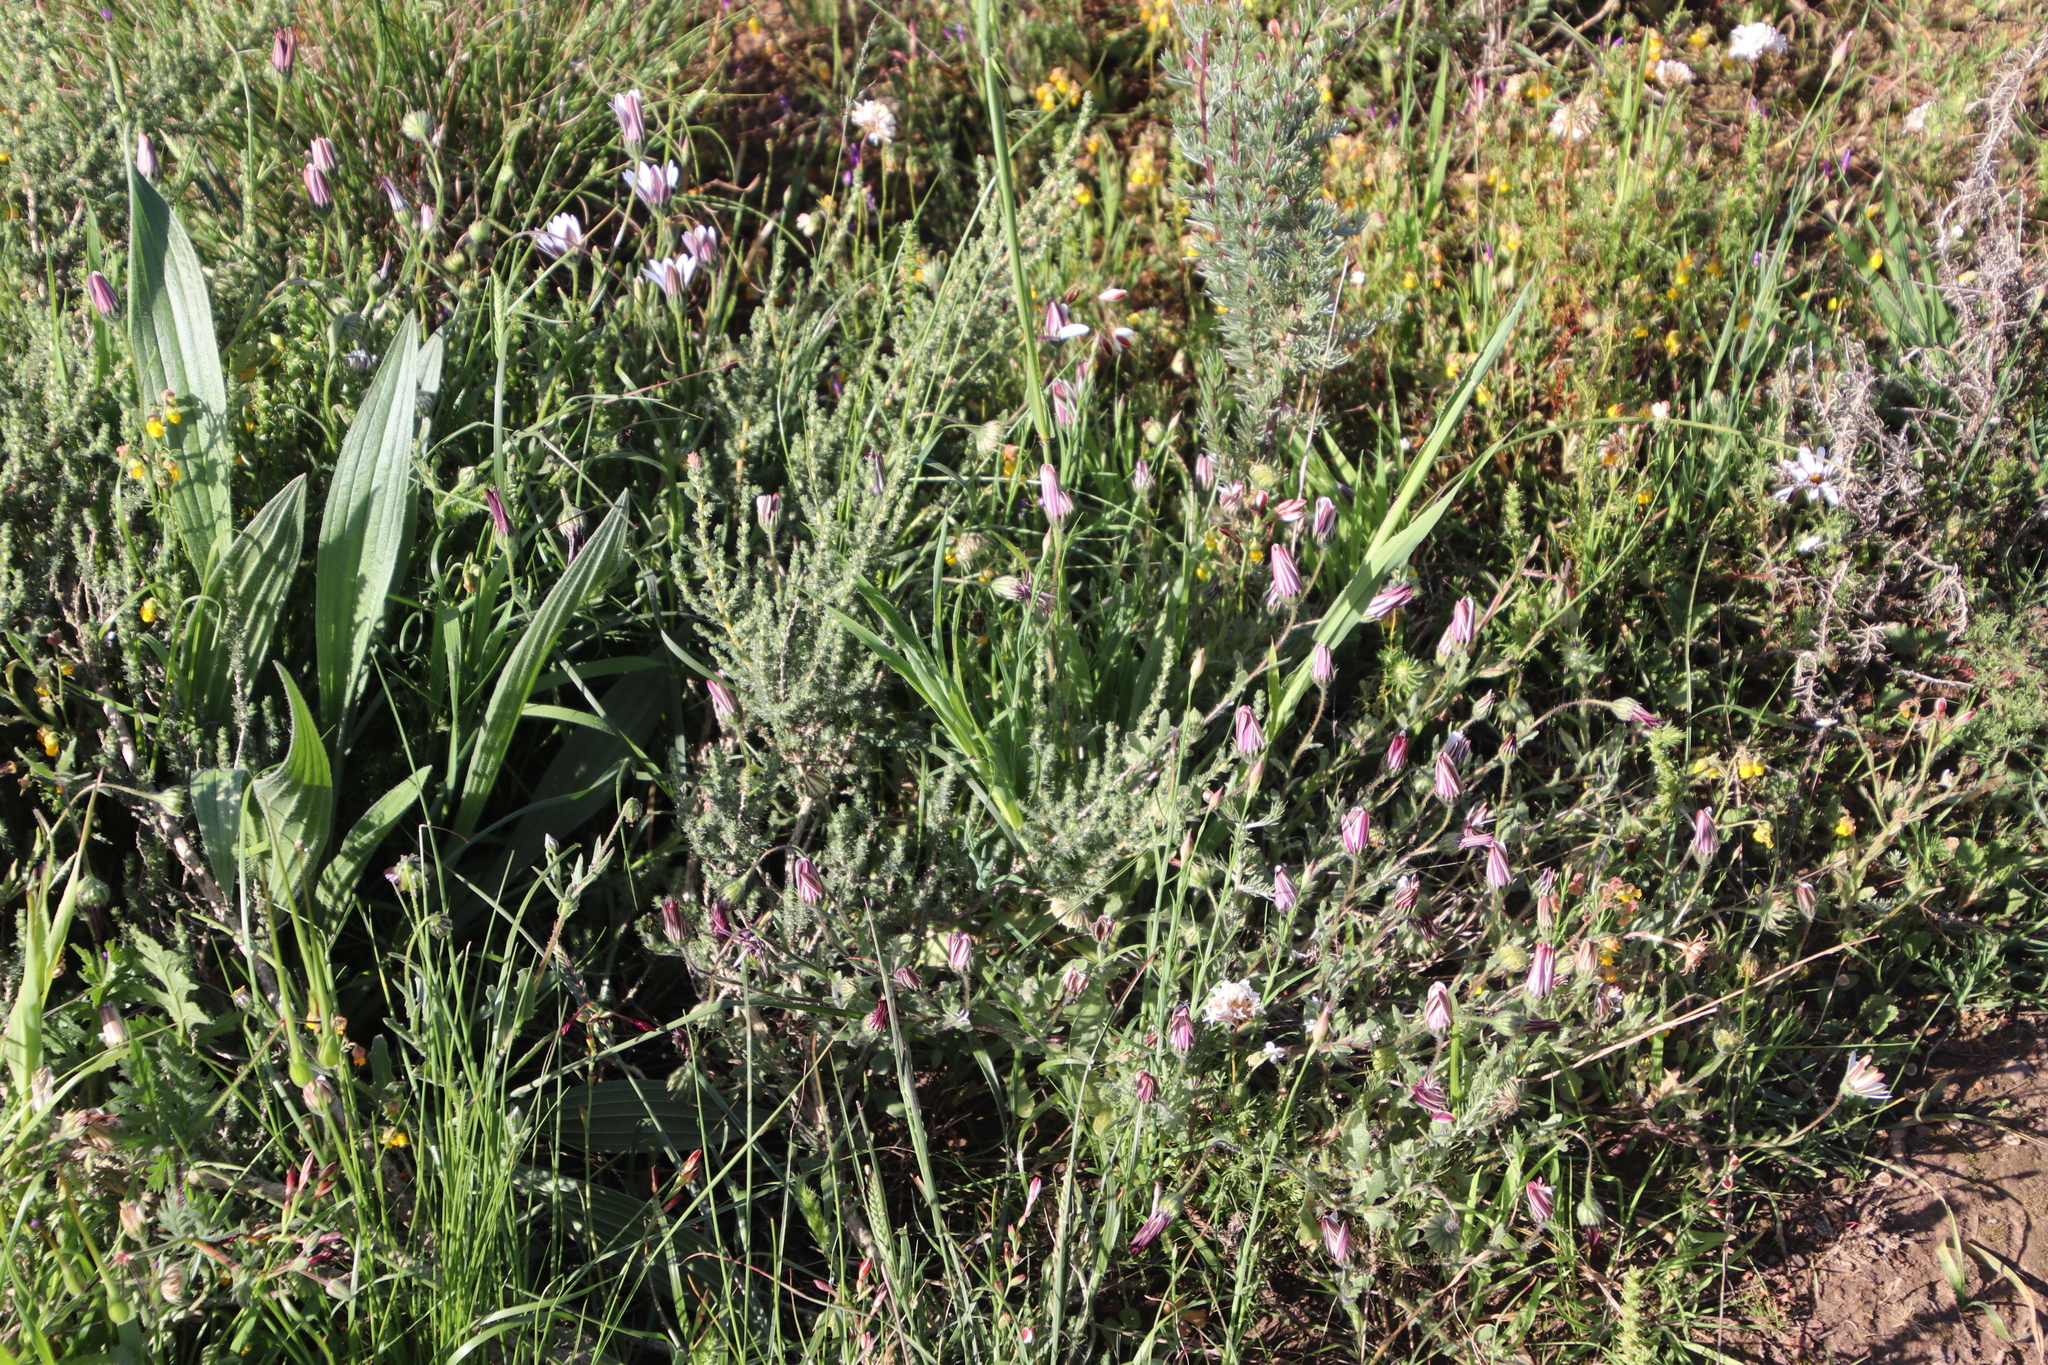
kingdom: Plantae
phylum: Tracheophyta
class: Magnoliopsida
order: Asterales
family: Asteraceae
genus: Dimorphotheca
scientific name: Dimorphotheca pluvialis
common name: Weather prophet
